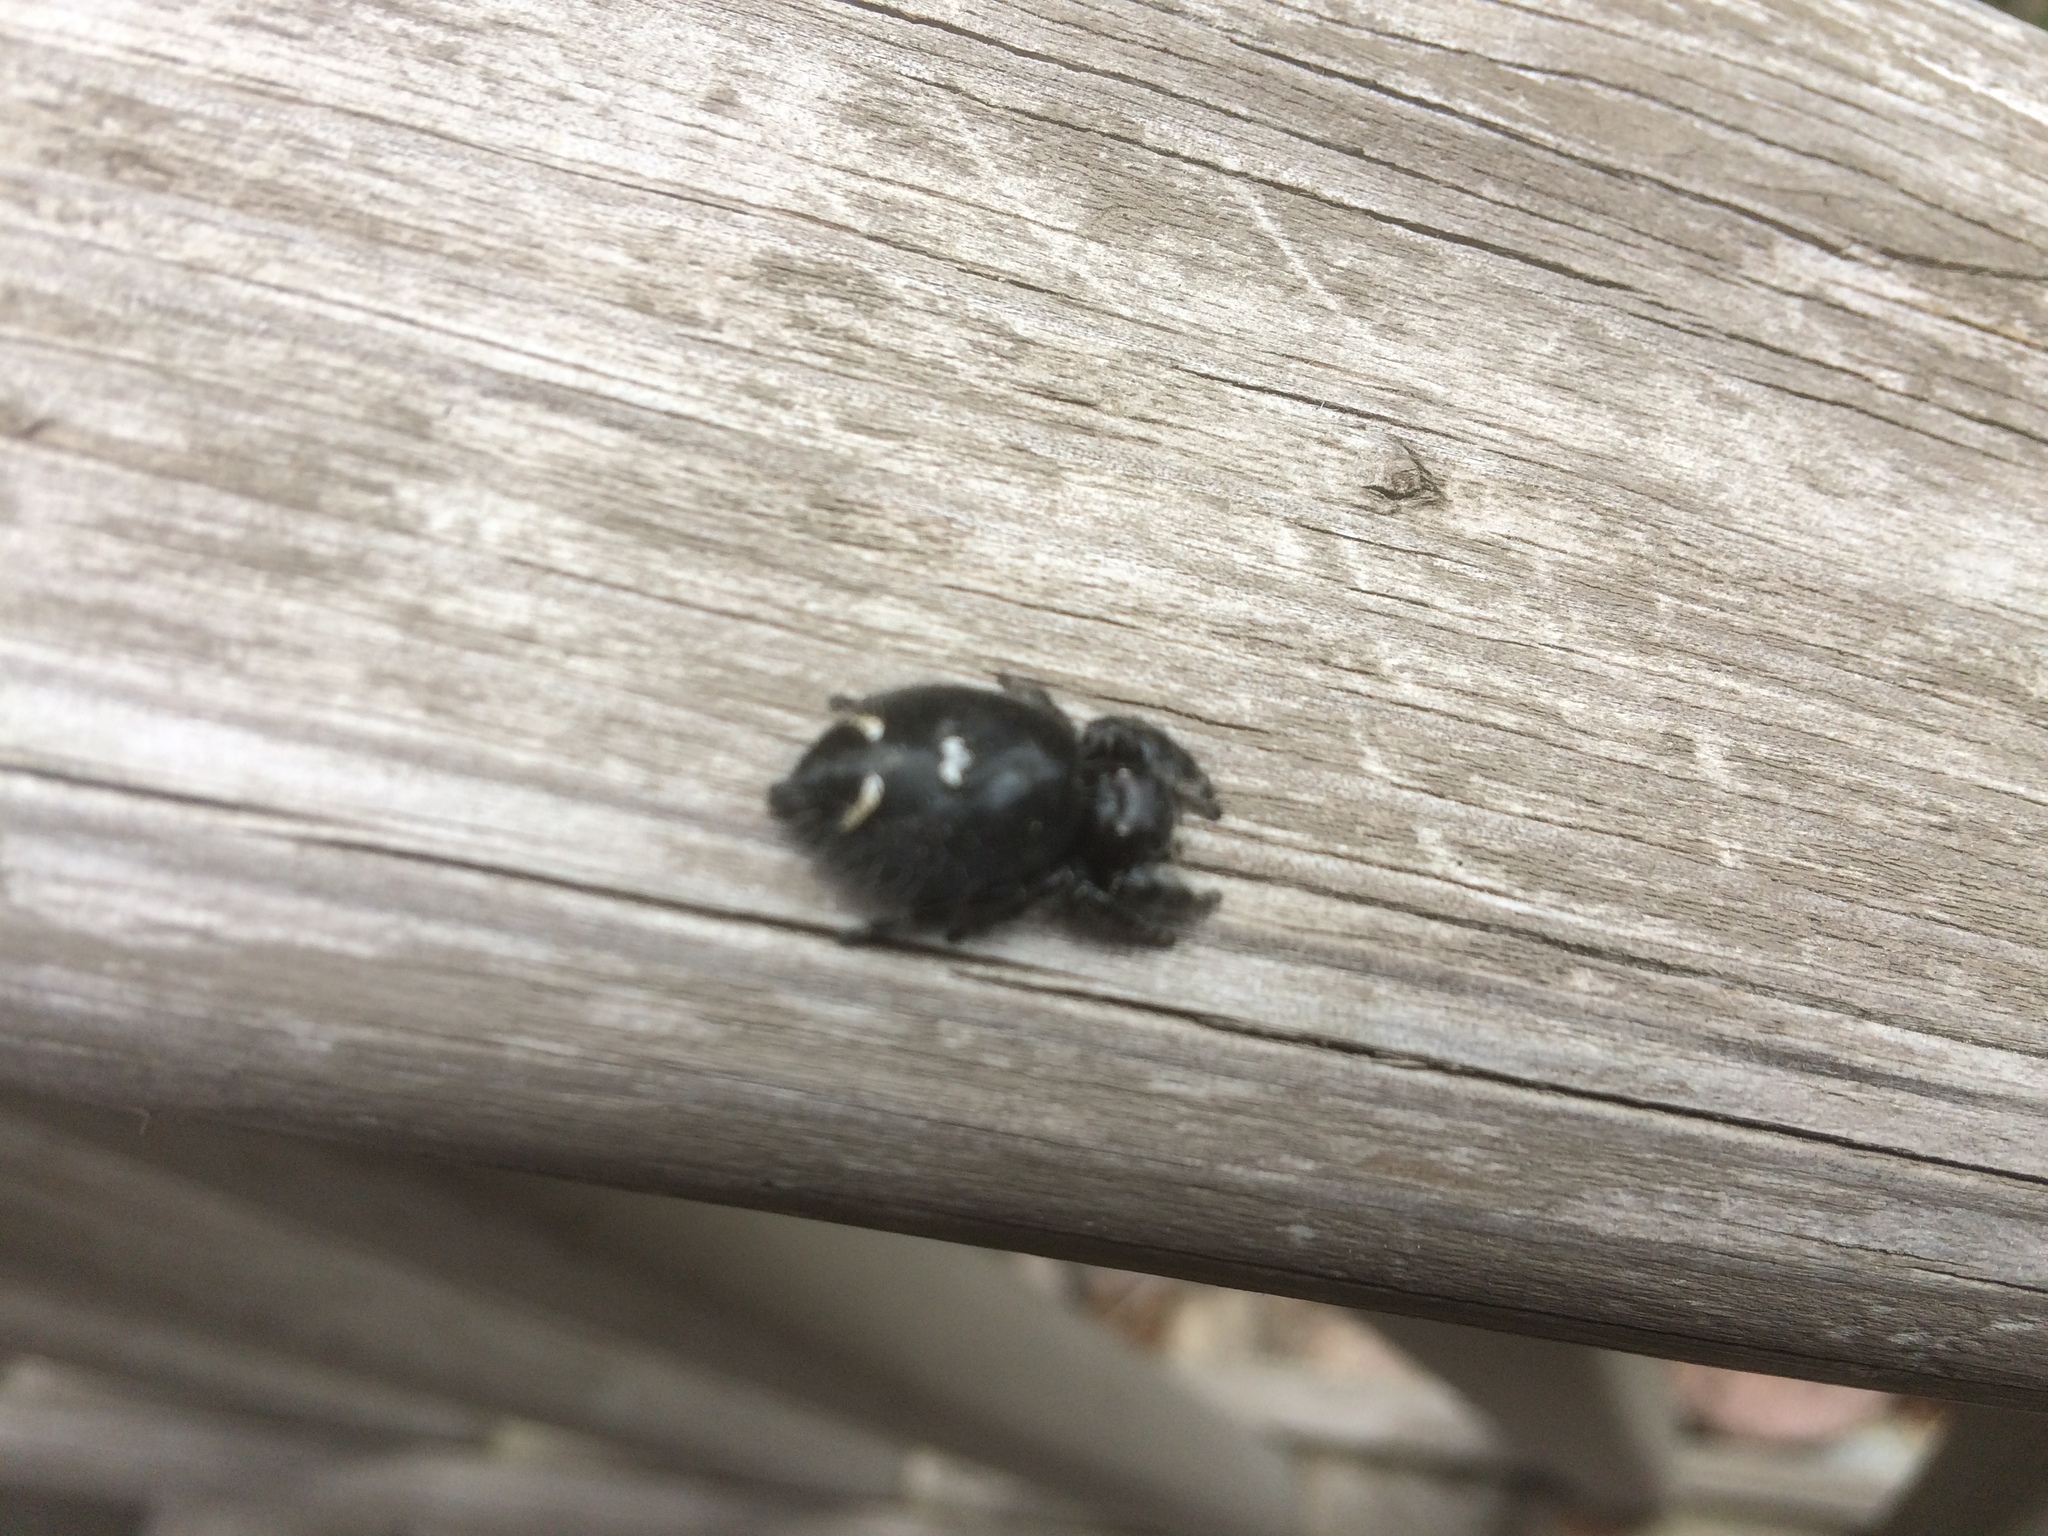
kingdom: Animalia
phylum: Arthropoda
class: Arachnida
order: Araneae
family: Salticidae
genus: Phidippus
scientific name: Phidippus audax
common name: Bold jumper
